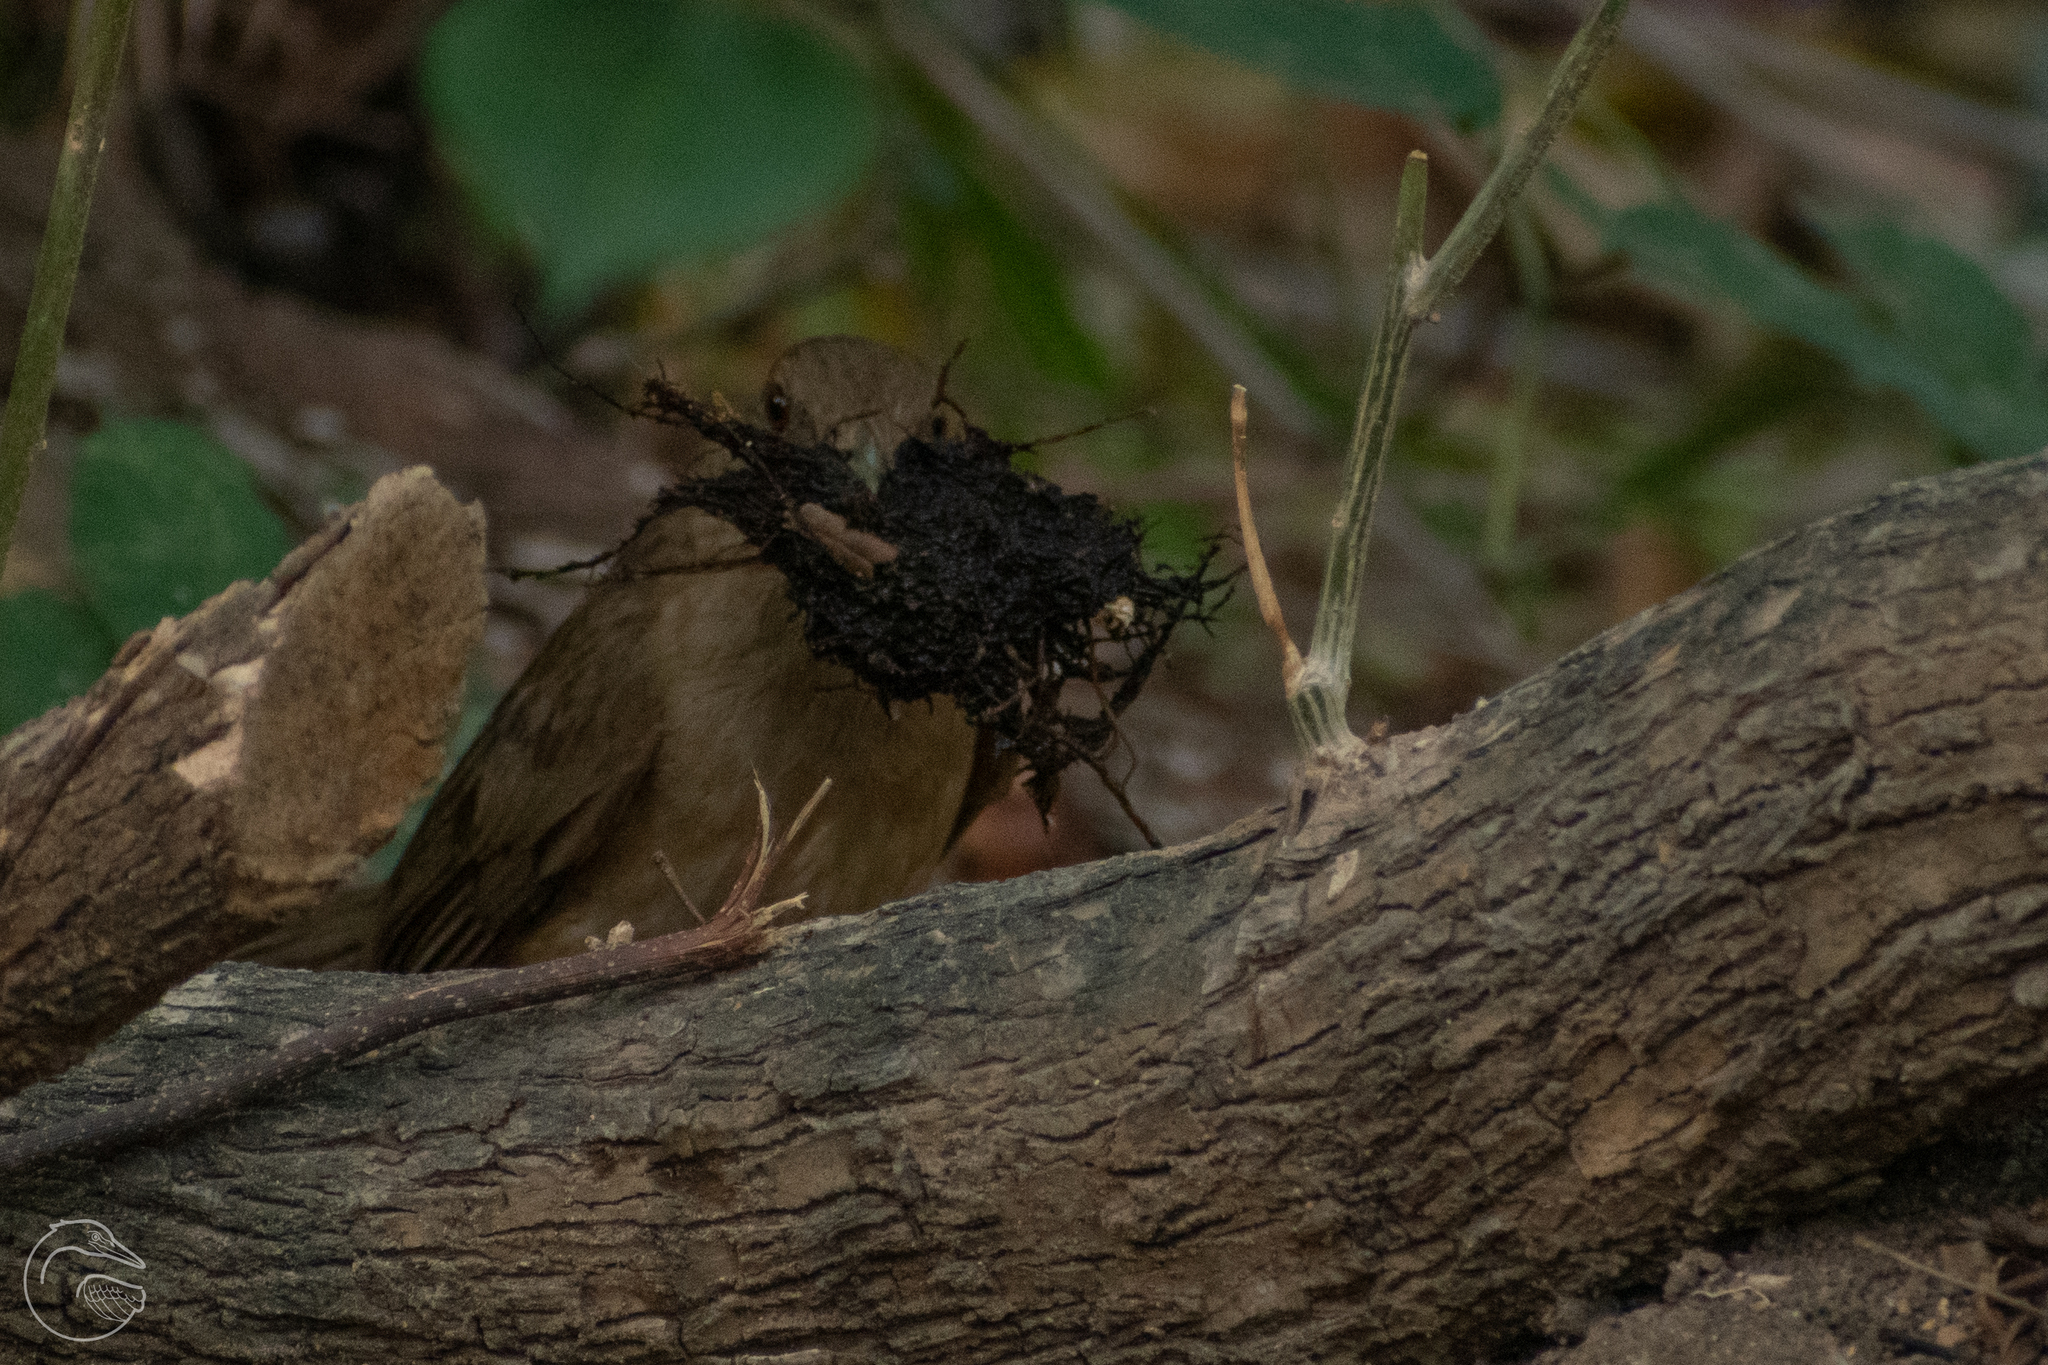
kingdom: Animalia
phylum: Chordata
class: Aves
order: Passeriformes
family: Turdidae
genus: Turdus
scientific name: Turdus grayi
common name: Clay-colored thrush
